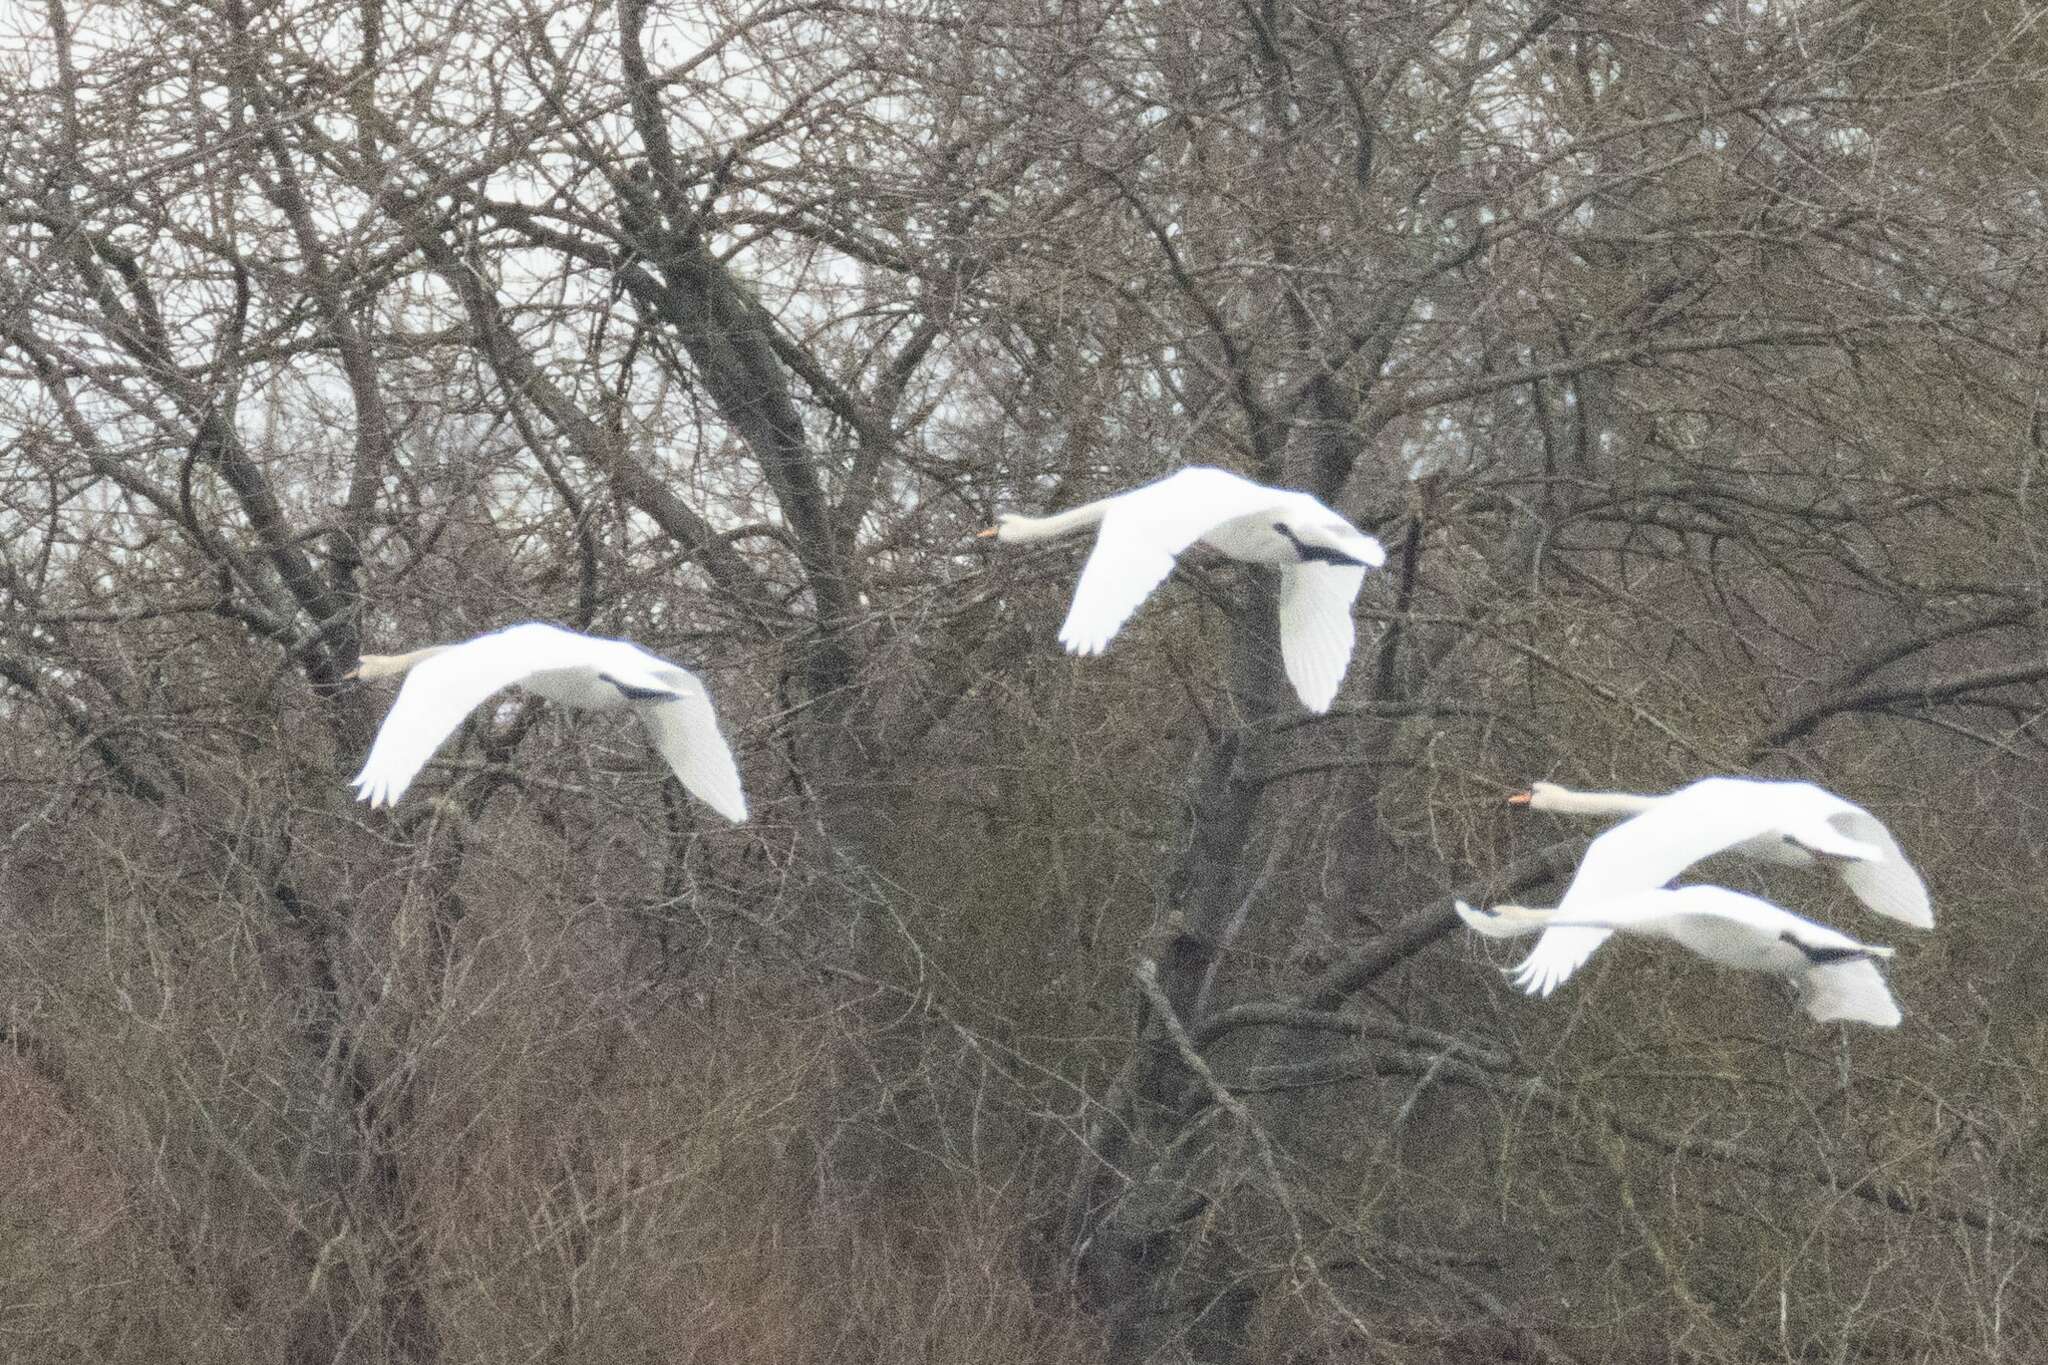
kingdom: Animalia
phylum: Chordata
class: Aves
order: Anseriformes
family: Anatidae
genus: Cygnus
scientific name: Cygnus olor
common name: Mute swan
